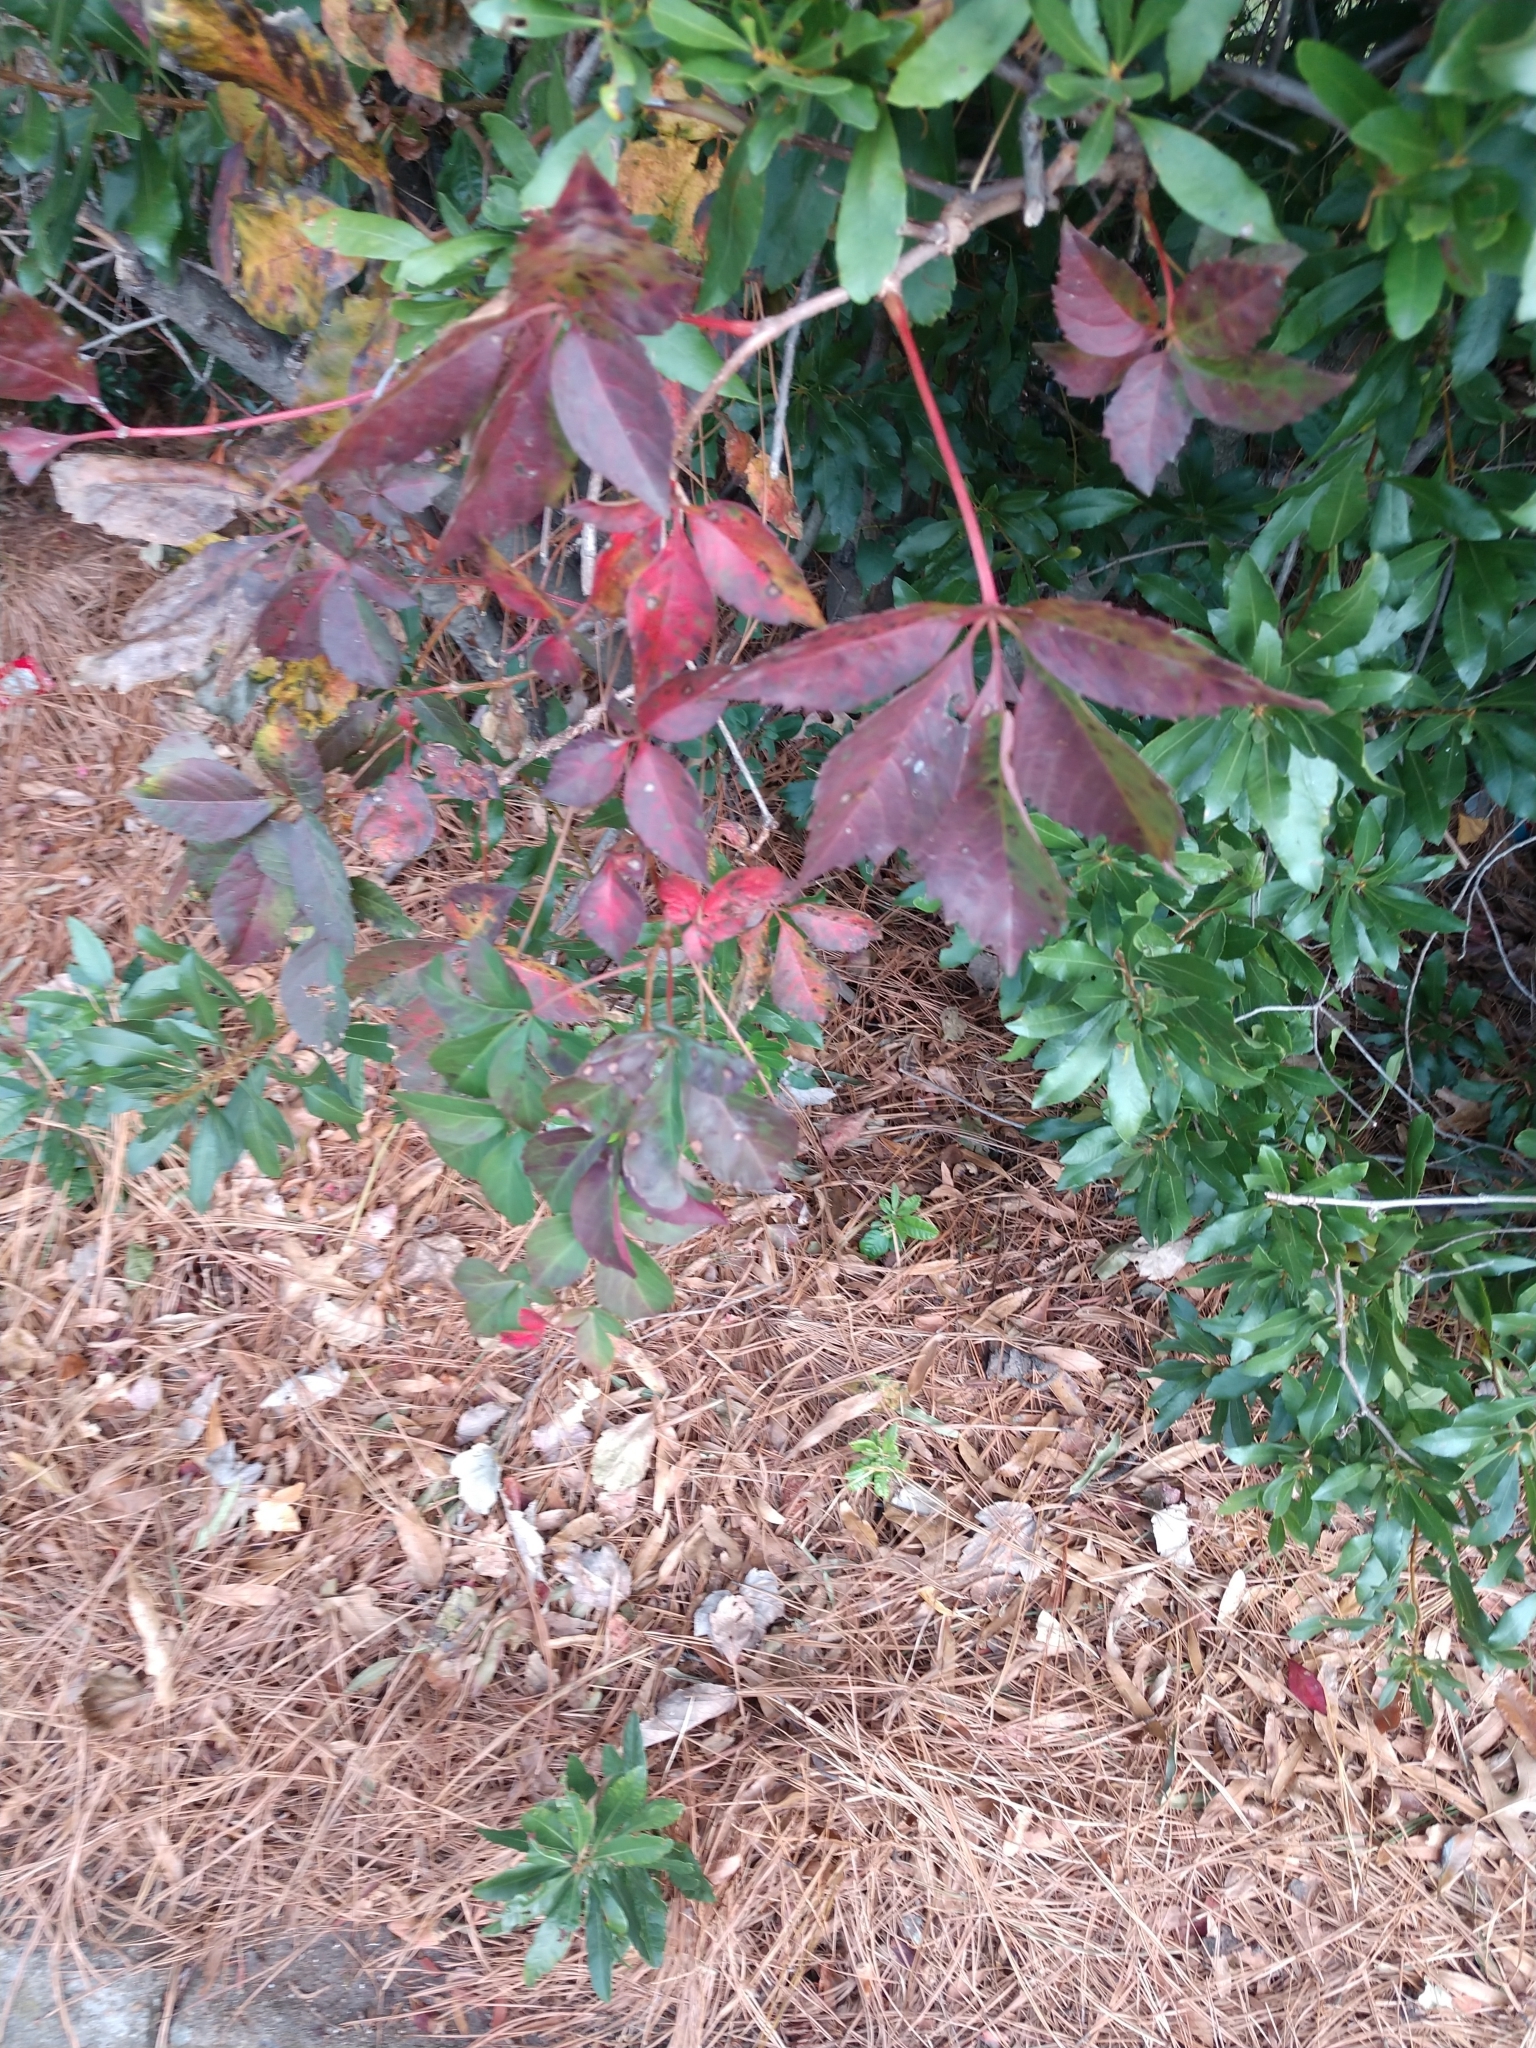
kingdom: Plantae
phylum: Tracheophyta
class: Magnoliopsida
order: Vitales
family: Vitaceae
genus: Parthenocissus
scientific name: Parthenocissus quinquefolia
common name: Virginia-creeper
